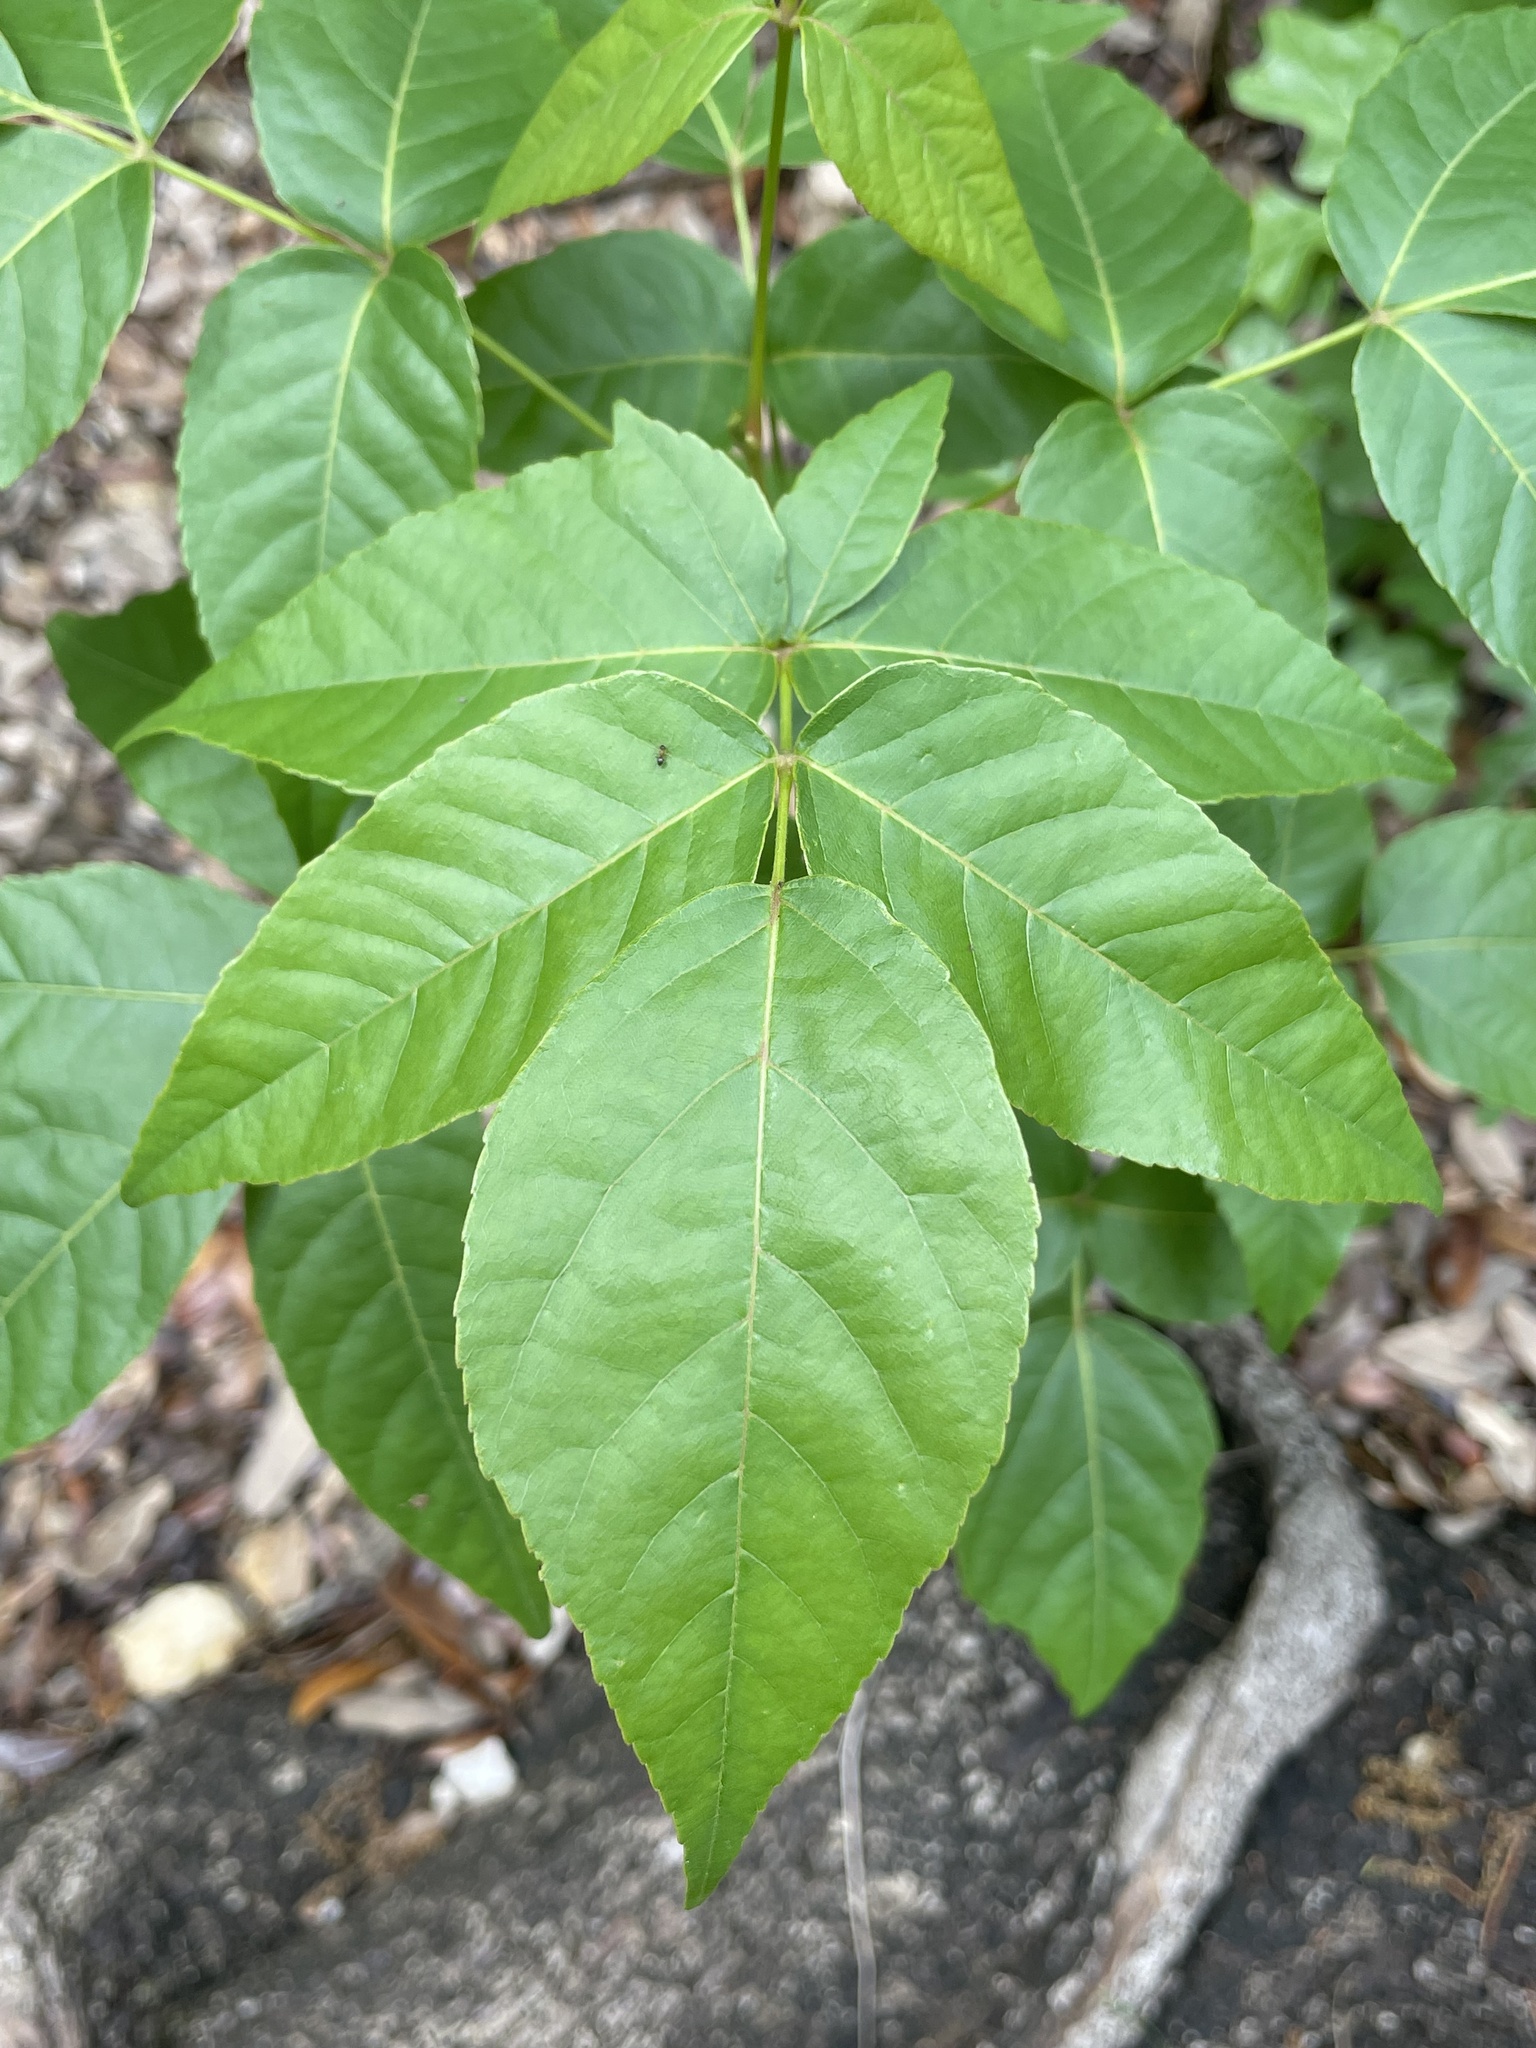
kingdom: Plantae
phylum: Tracheophyta
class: Magnoliopsida
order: Sapindales
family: Sapindaceae
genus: Ungnadia
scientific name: Ungnadia speciosa
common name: Texas-buckeye
